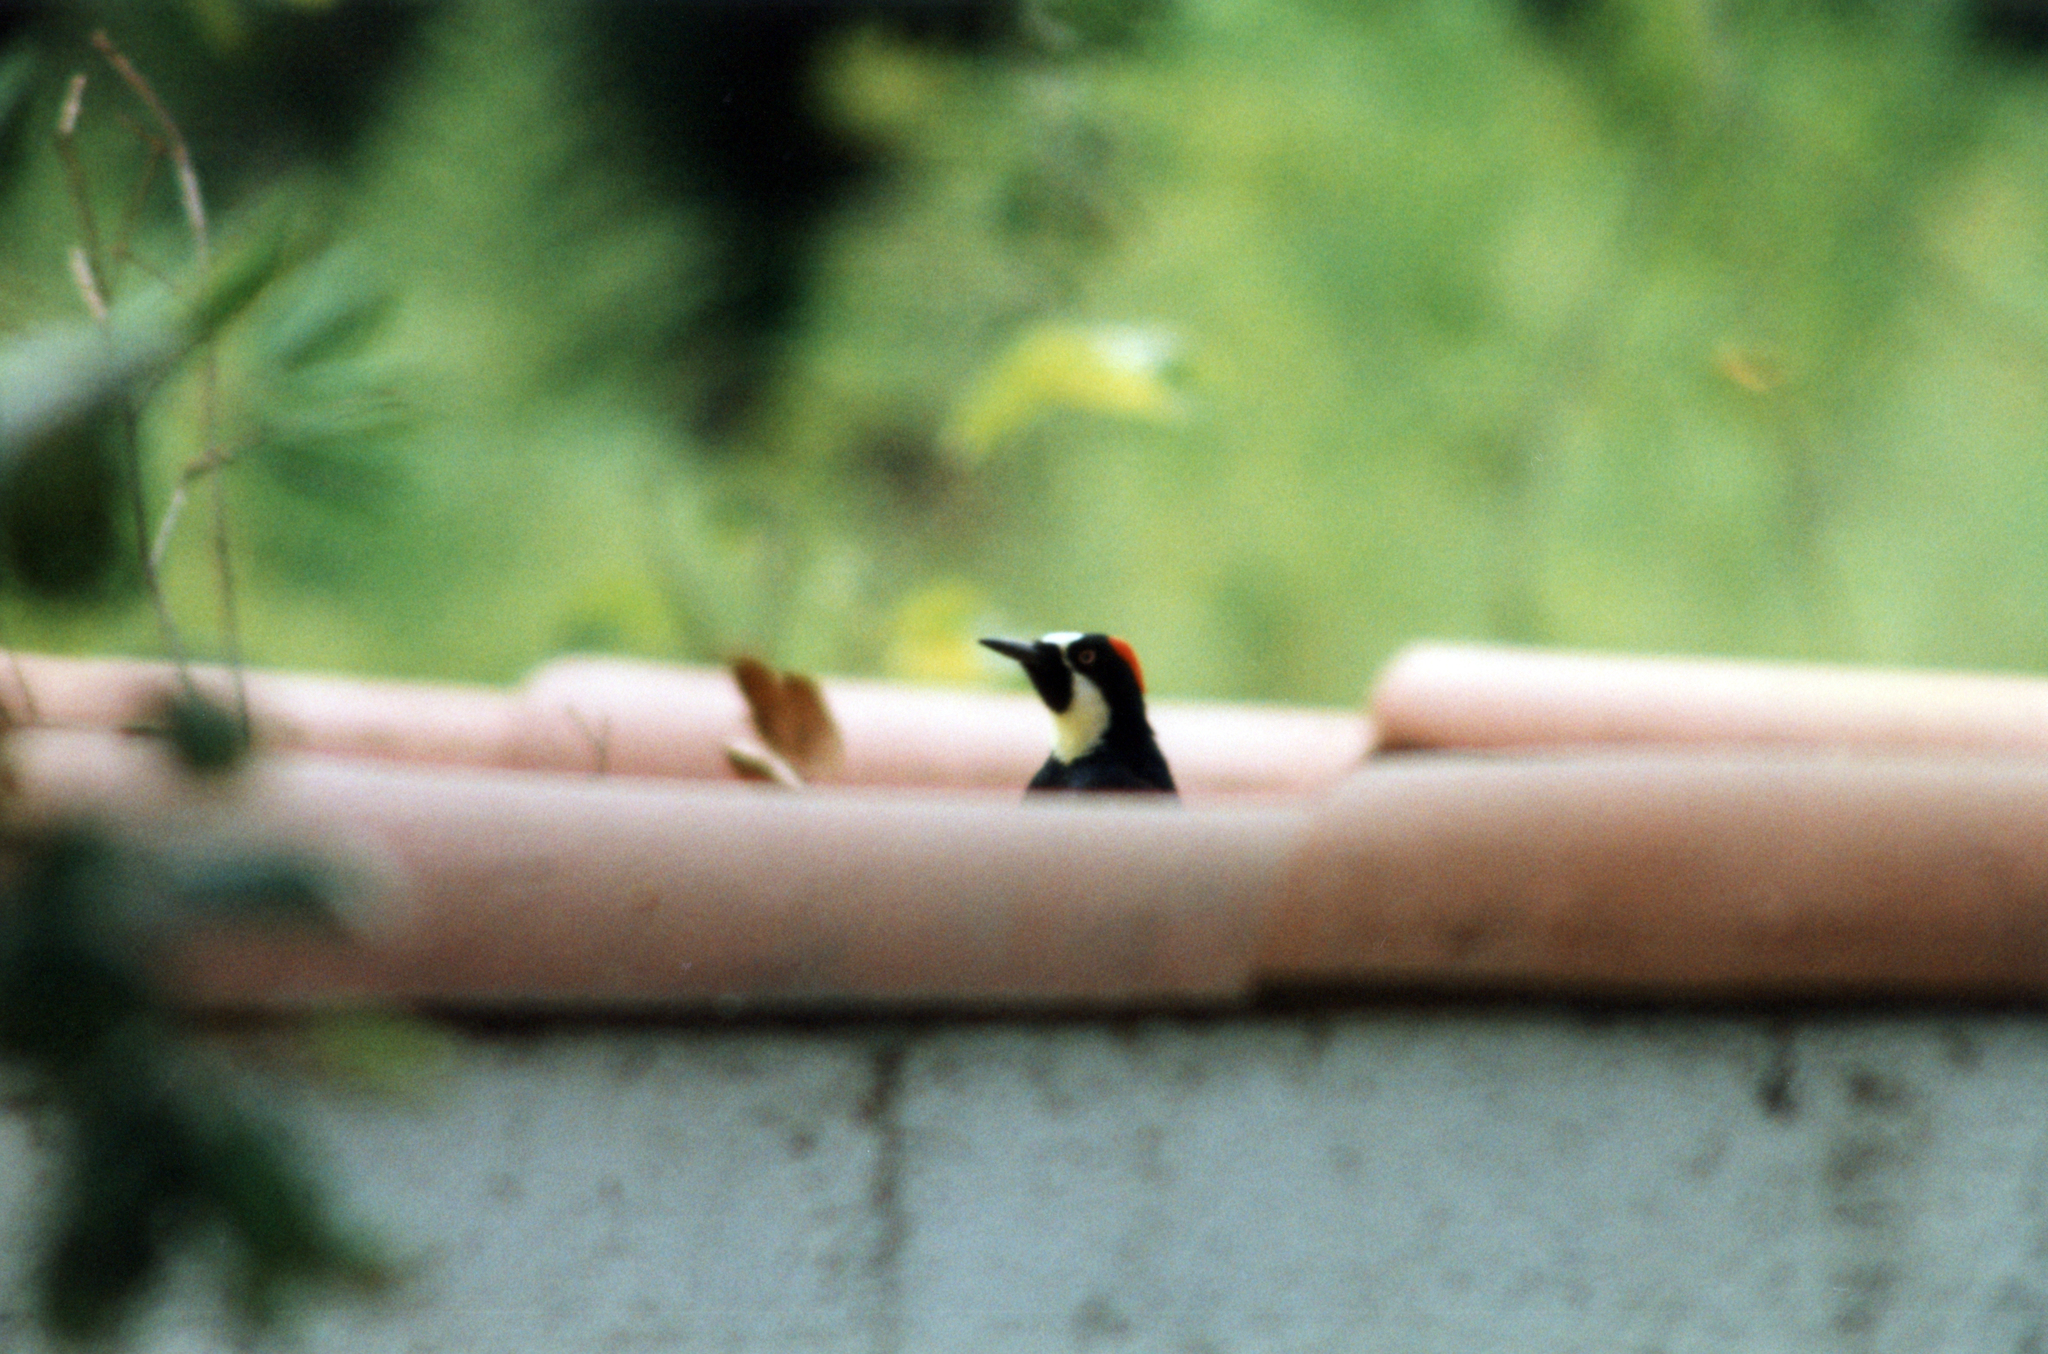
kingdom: Animalia
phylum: Chordata
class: Aves
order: Piciformes
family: Picidae
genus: Melanerpes
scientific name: Melanerpes formicivorus
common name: Acorn woodpecker
